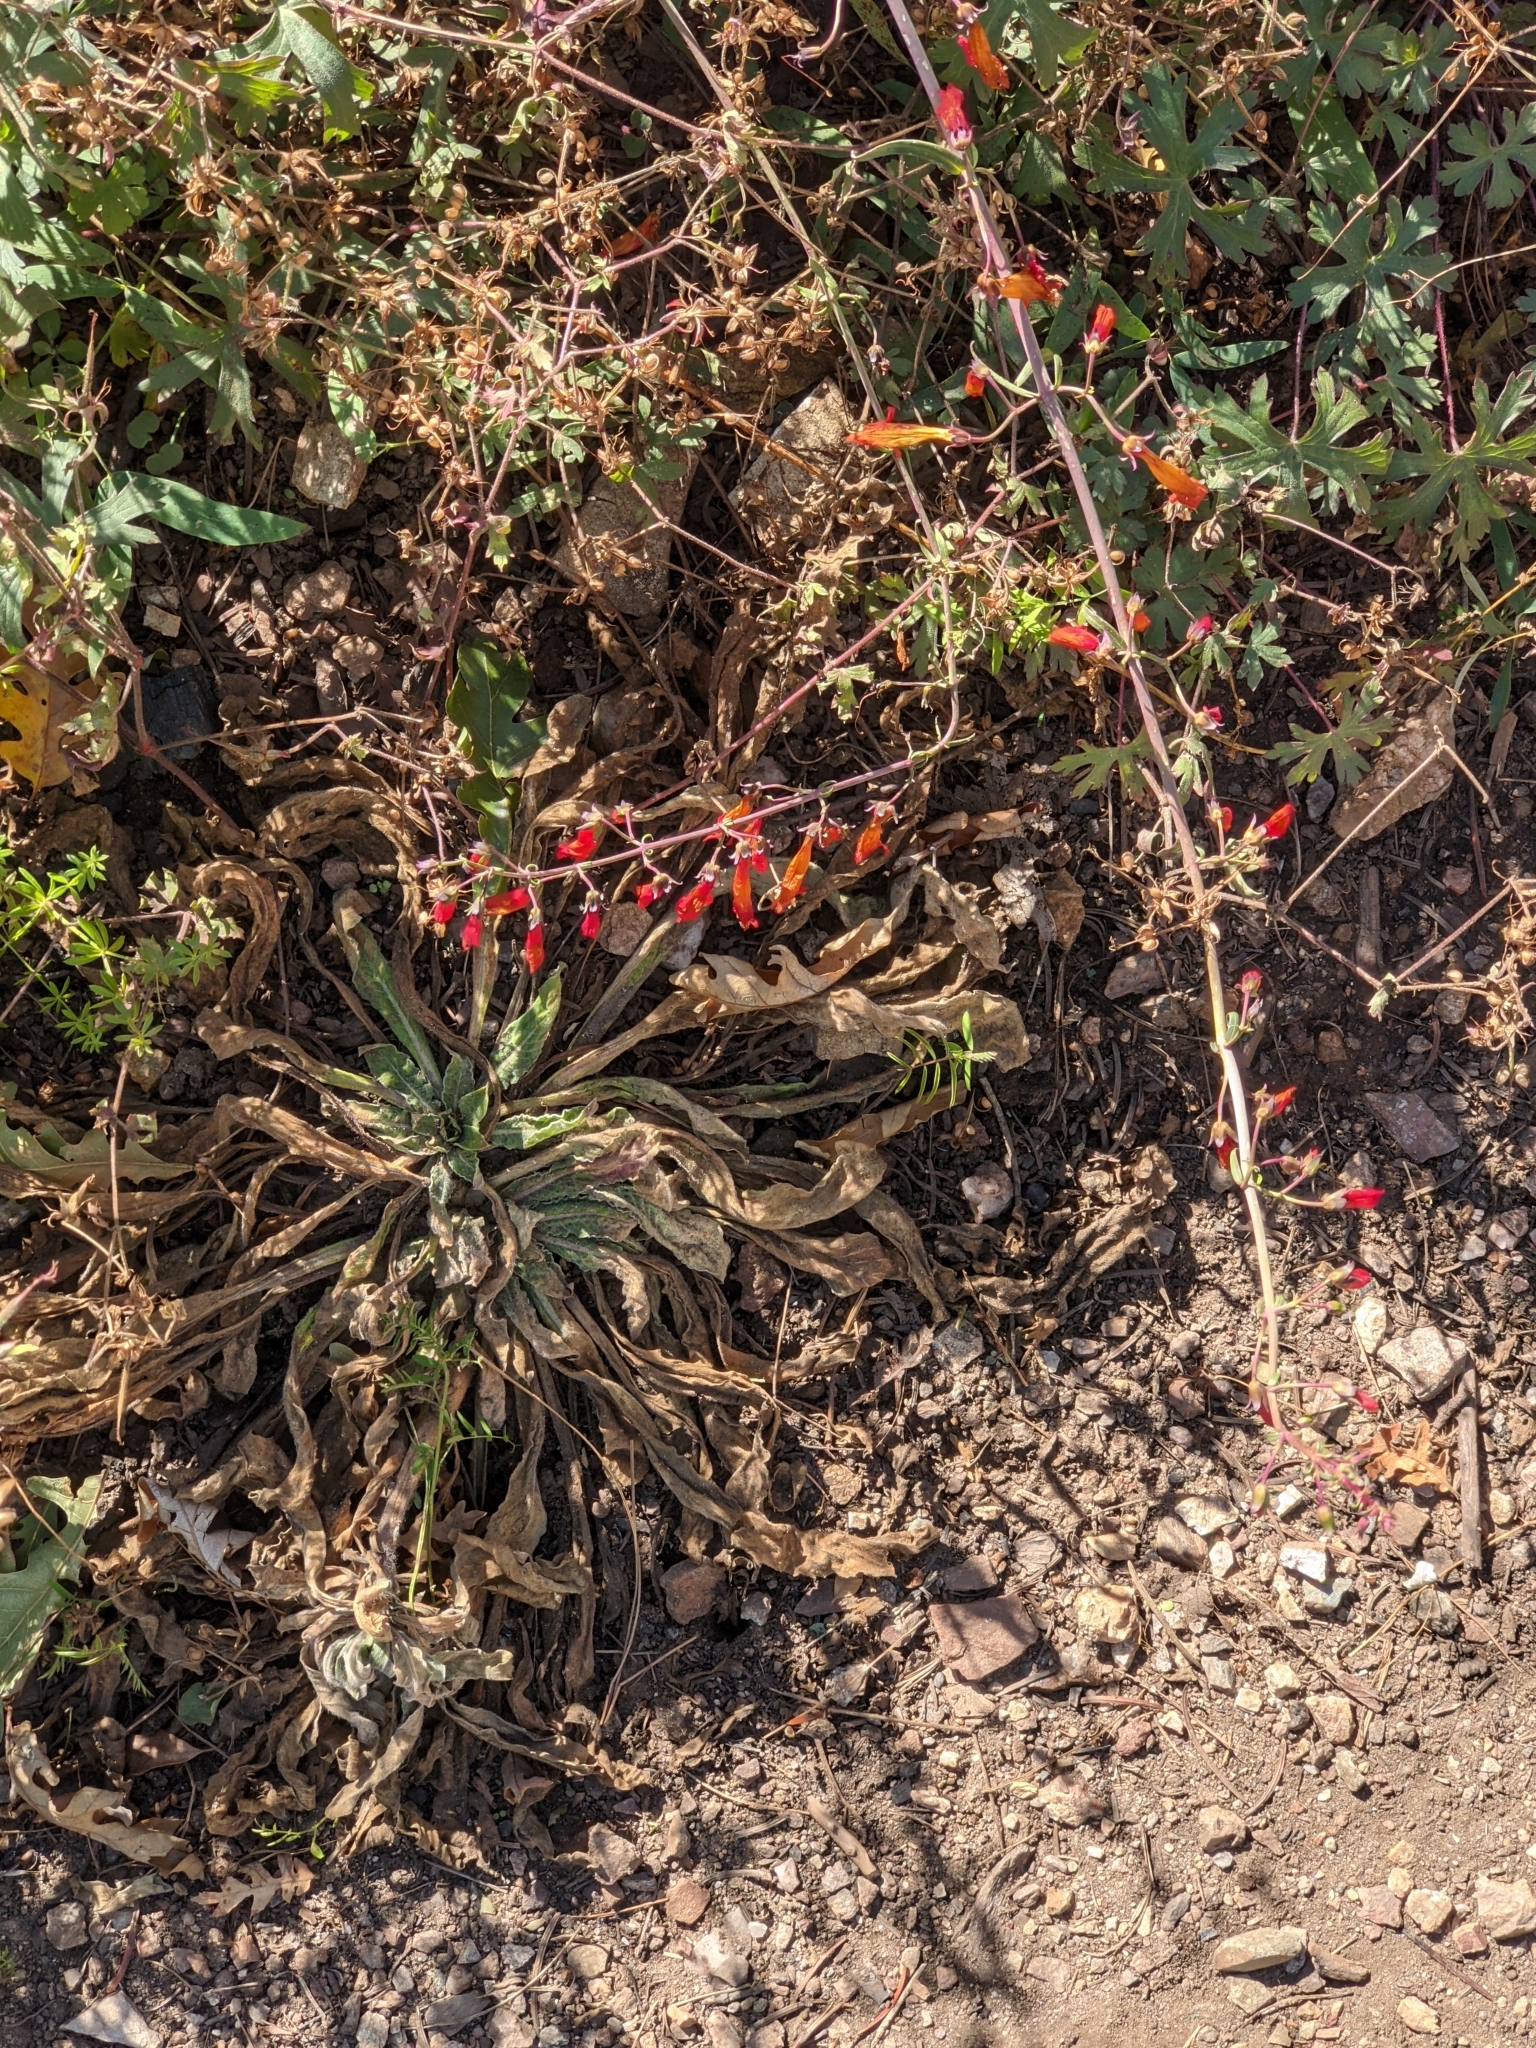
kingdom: Plantae
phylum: Tracheophyta
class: Magnoliopsida
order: Lamiales
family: Plantaginaceae
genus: Penstemon
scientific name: Penstemon barbatus
